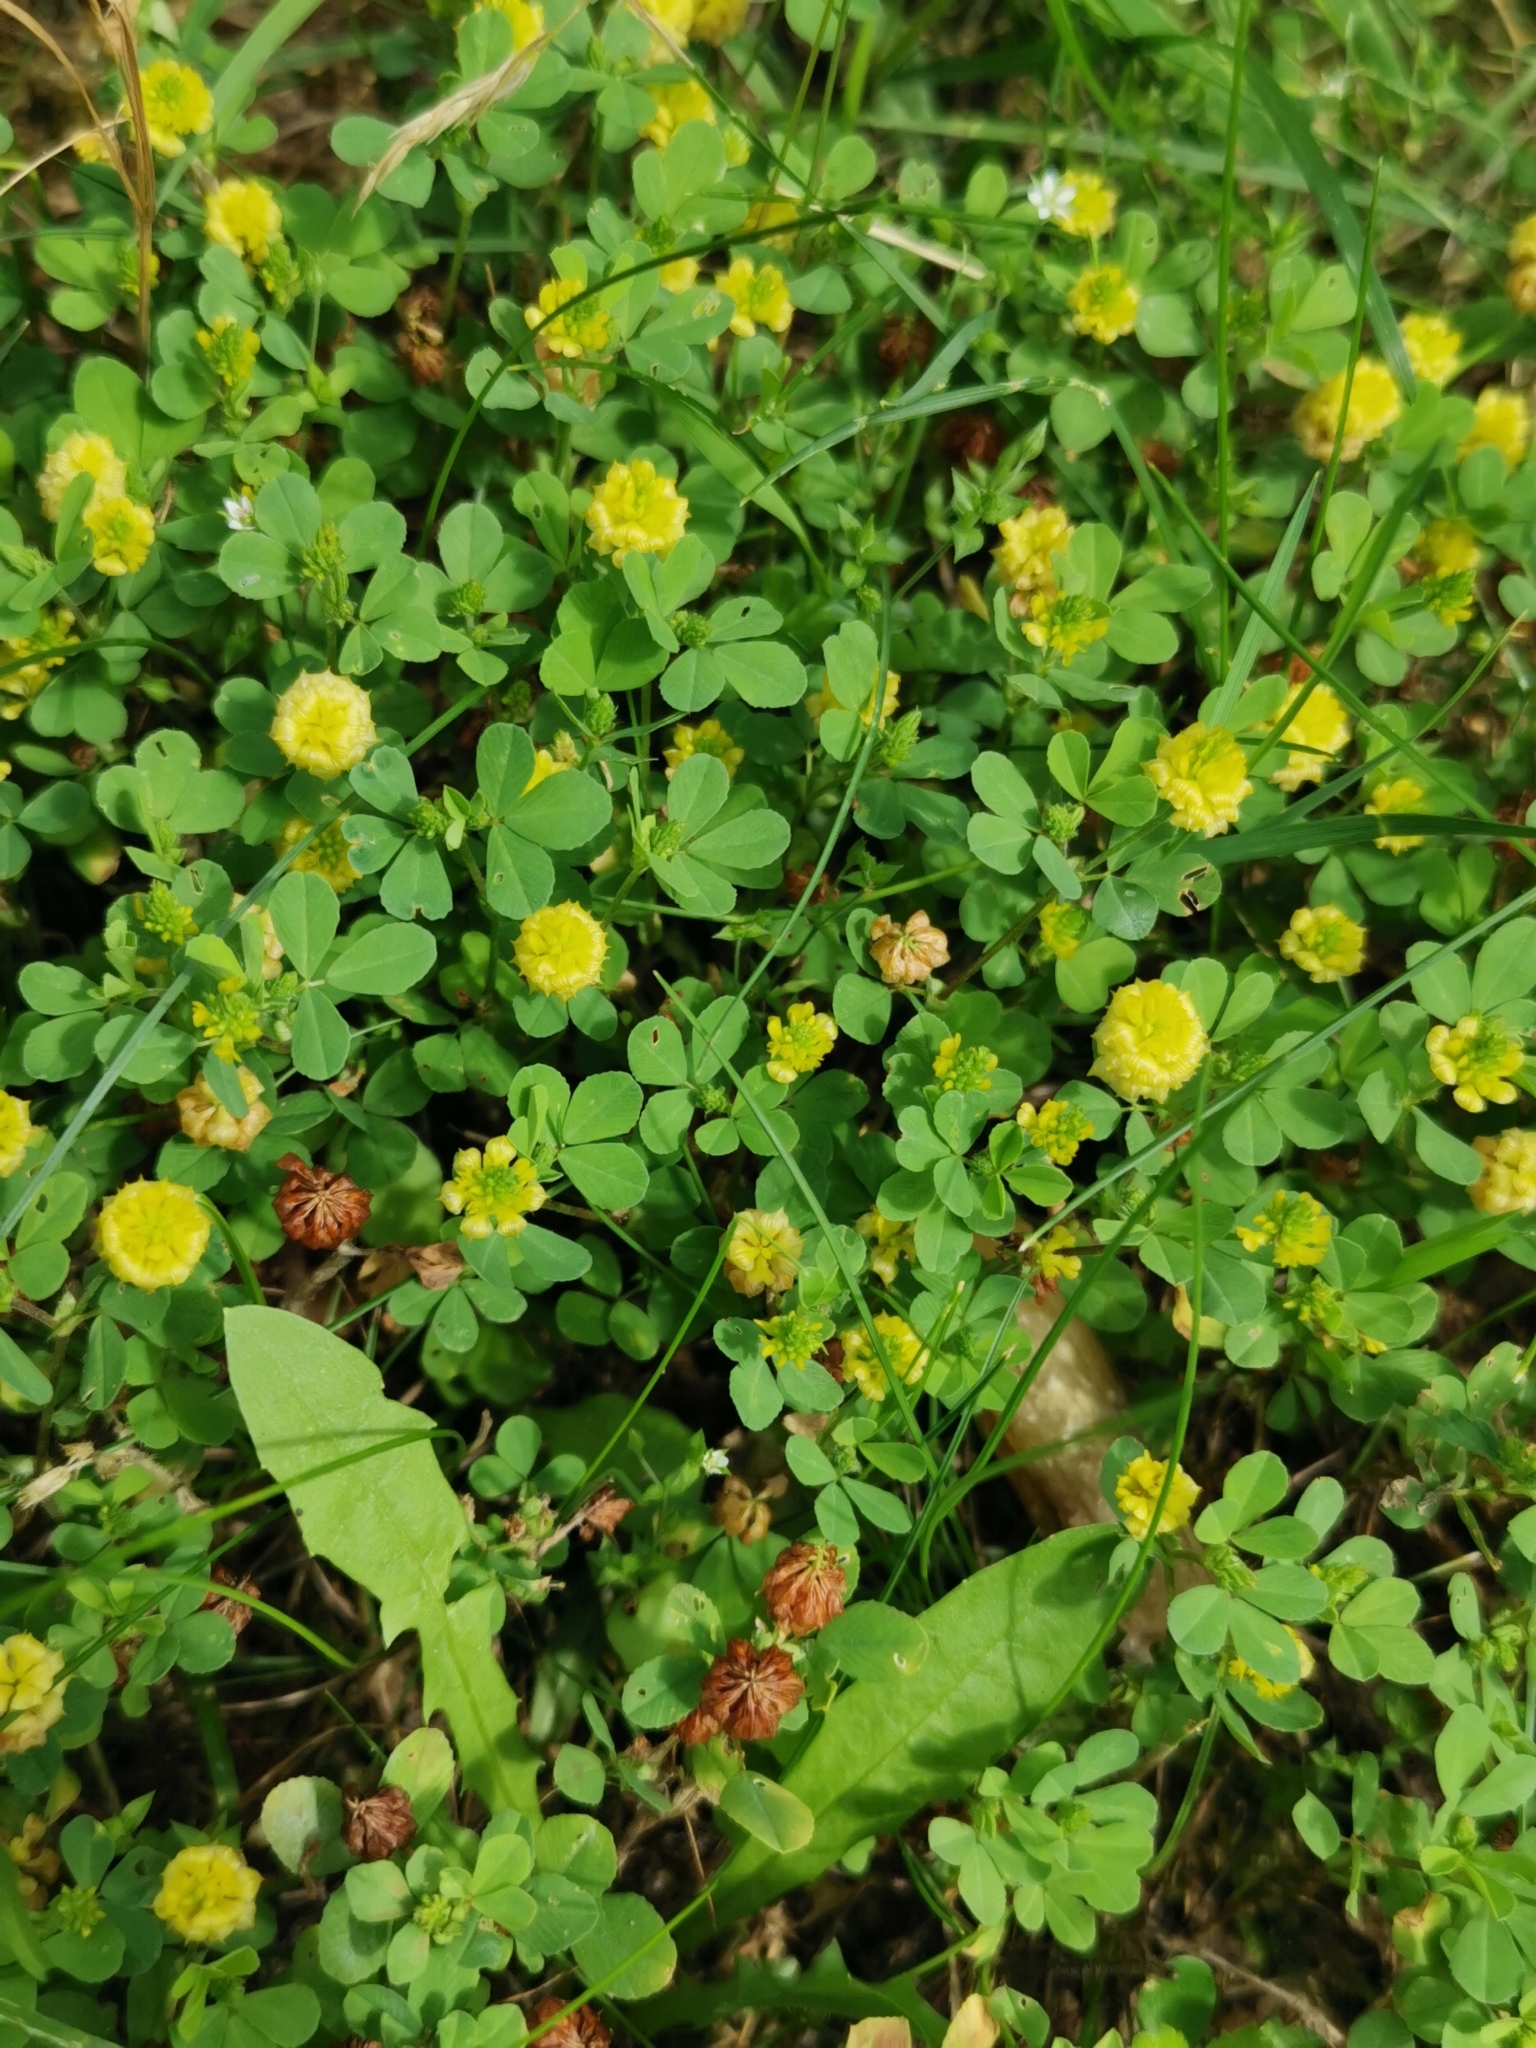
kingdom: Plantae
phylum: Tracheophyta
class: Magnoliopsida
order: Fabales
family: Fabaceae
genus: Trifolium
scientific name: Trifolium campestre
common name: Field clover
